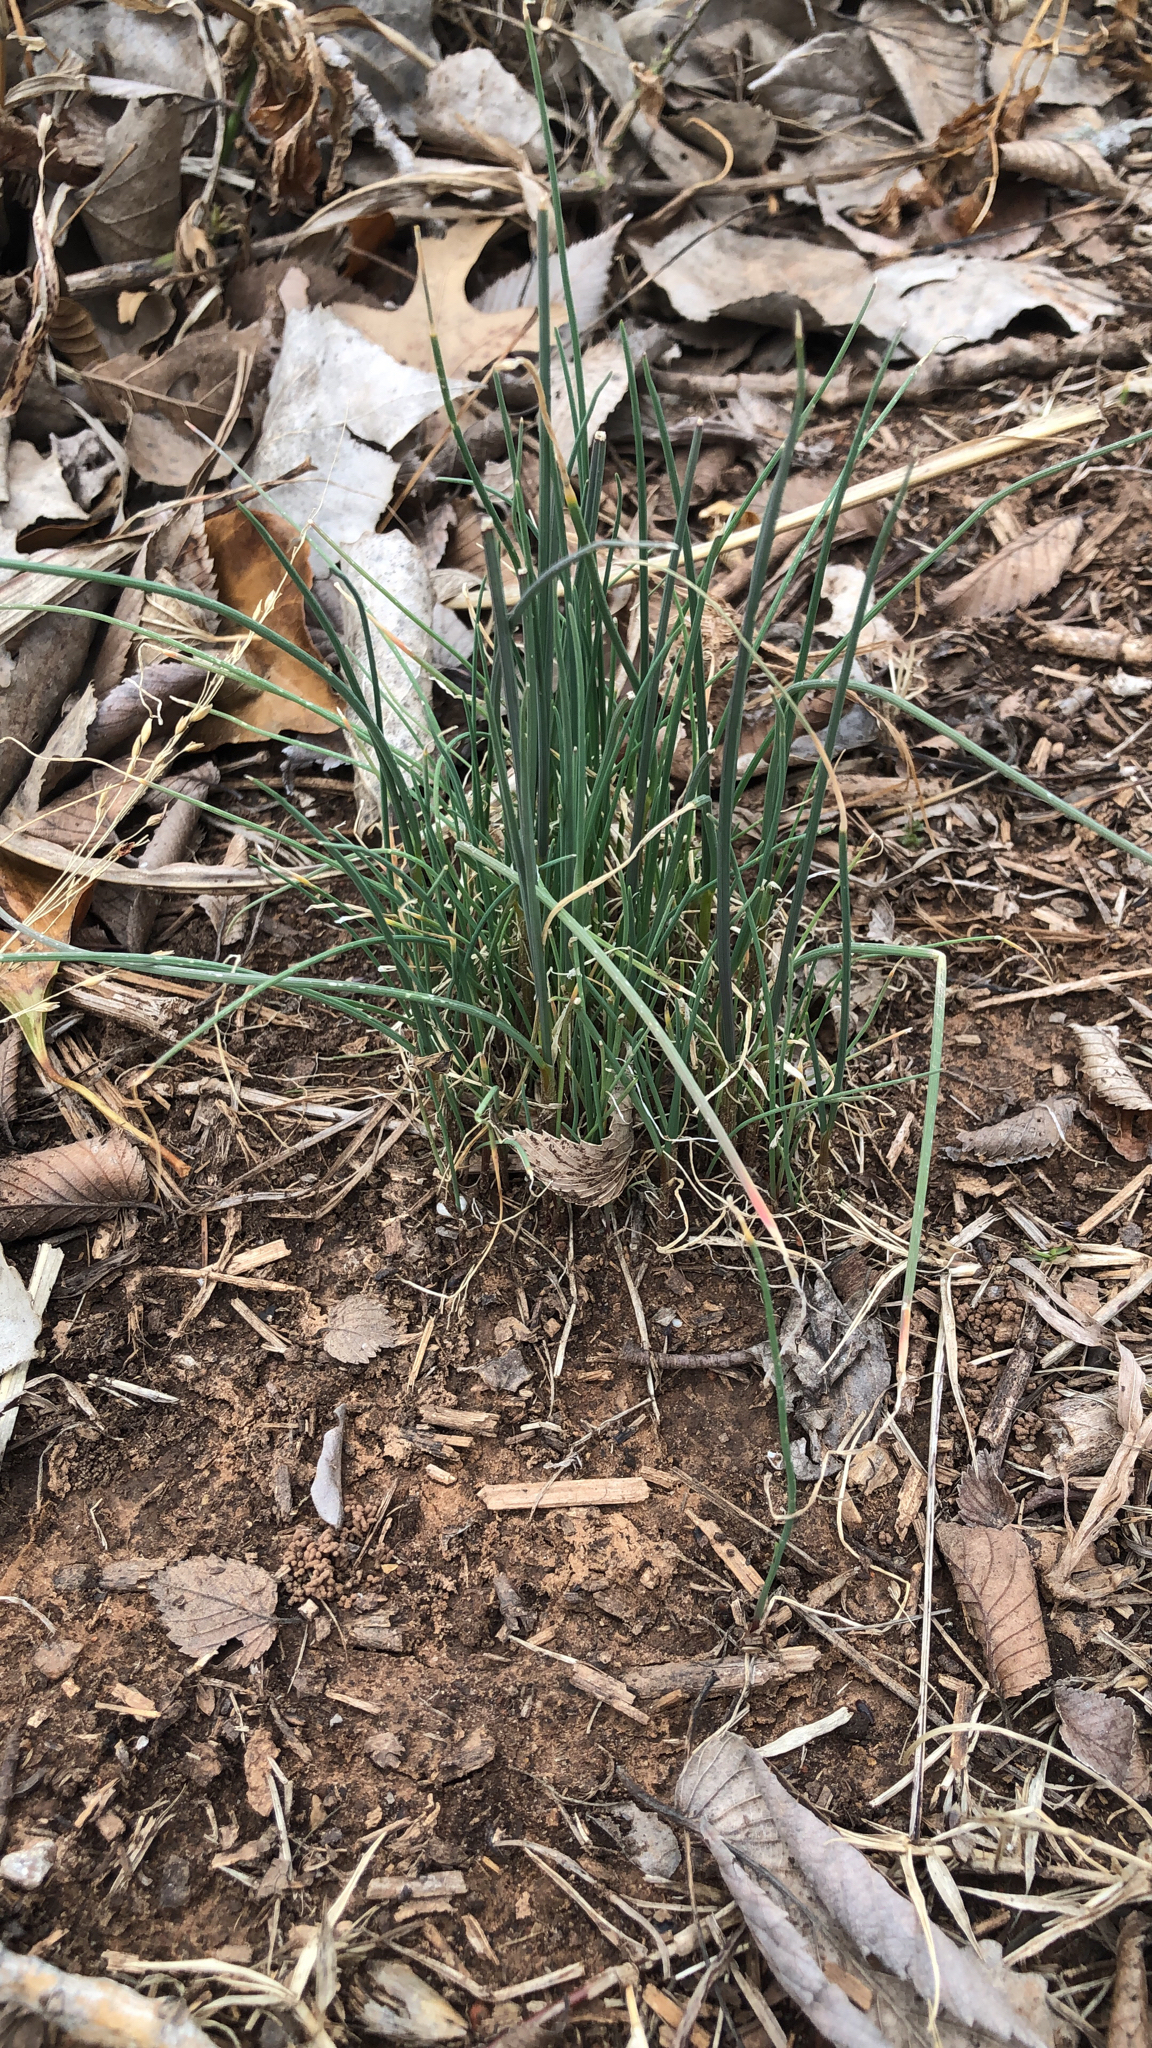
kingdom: Plantae
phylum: Tracheophyta
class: Liliopsida
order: Asparagales
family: Amaryllidaceae
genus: Allium
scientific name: Allium vineale
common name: Crow garlic
